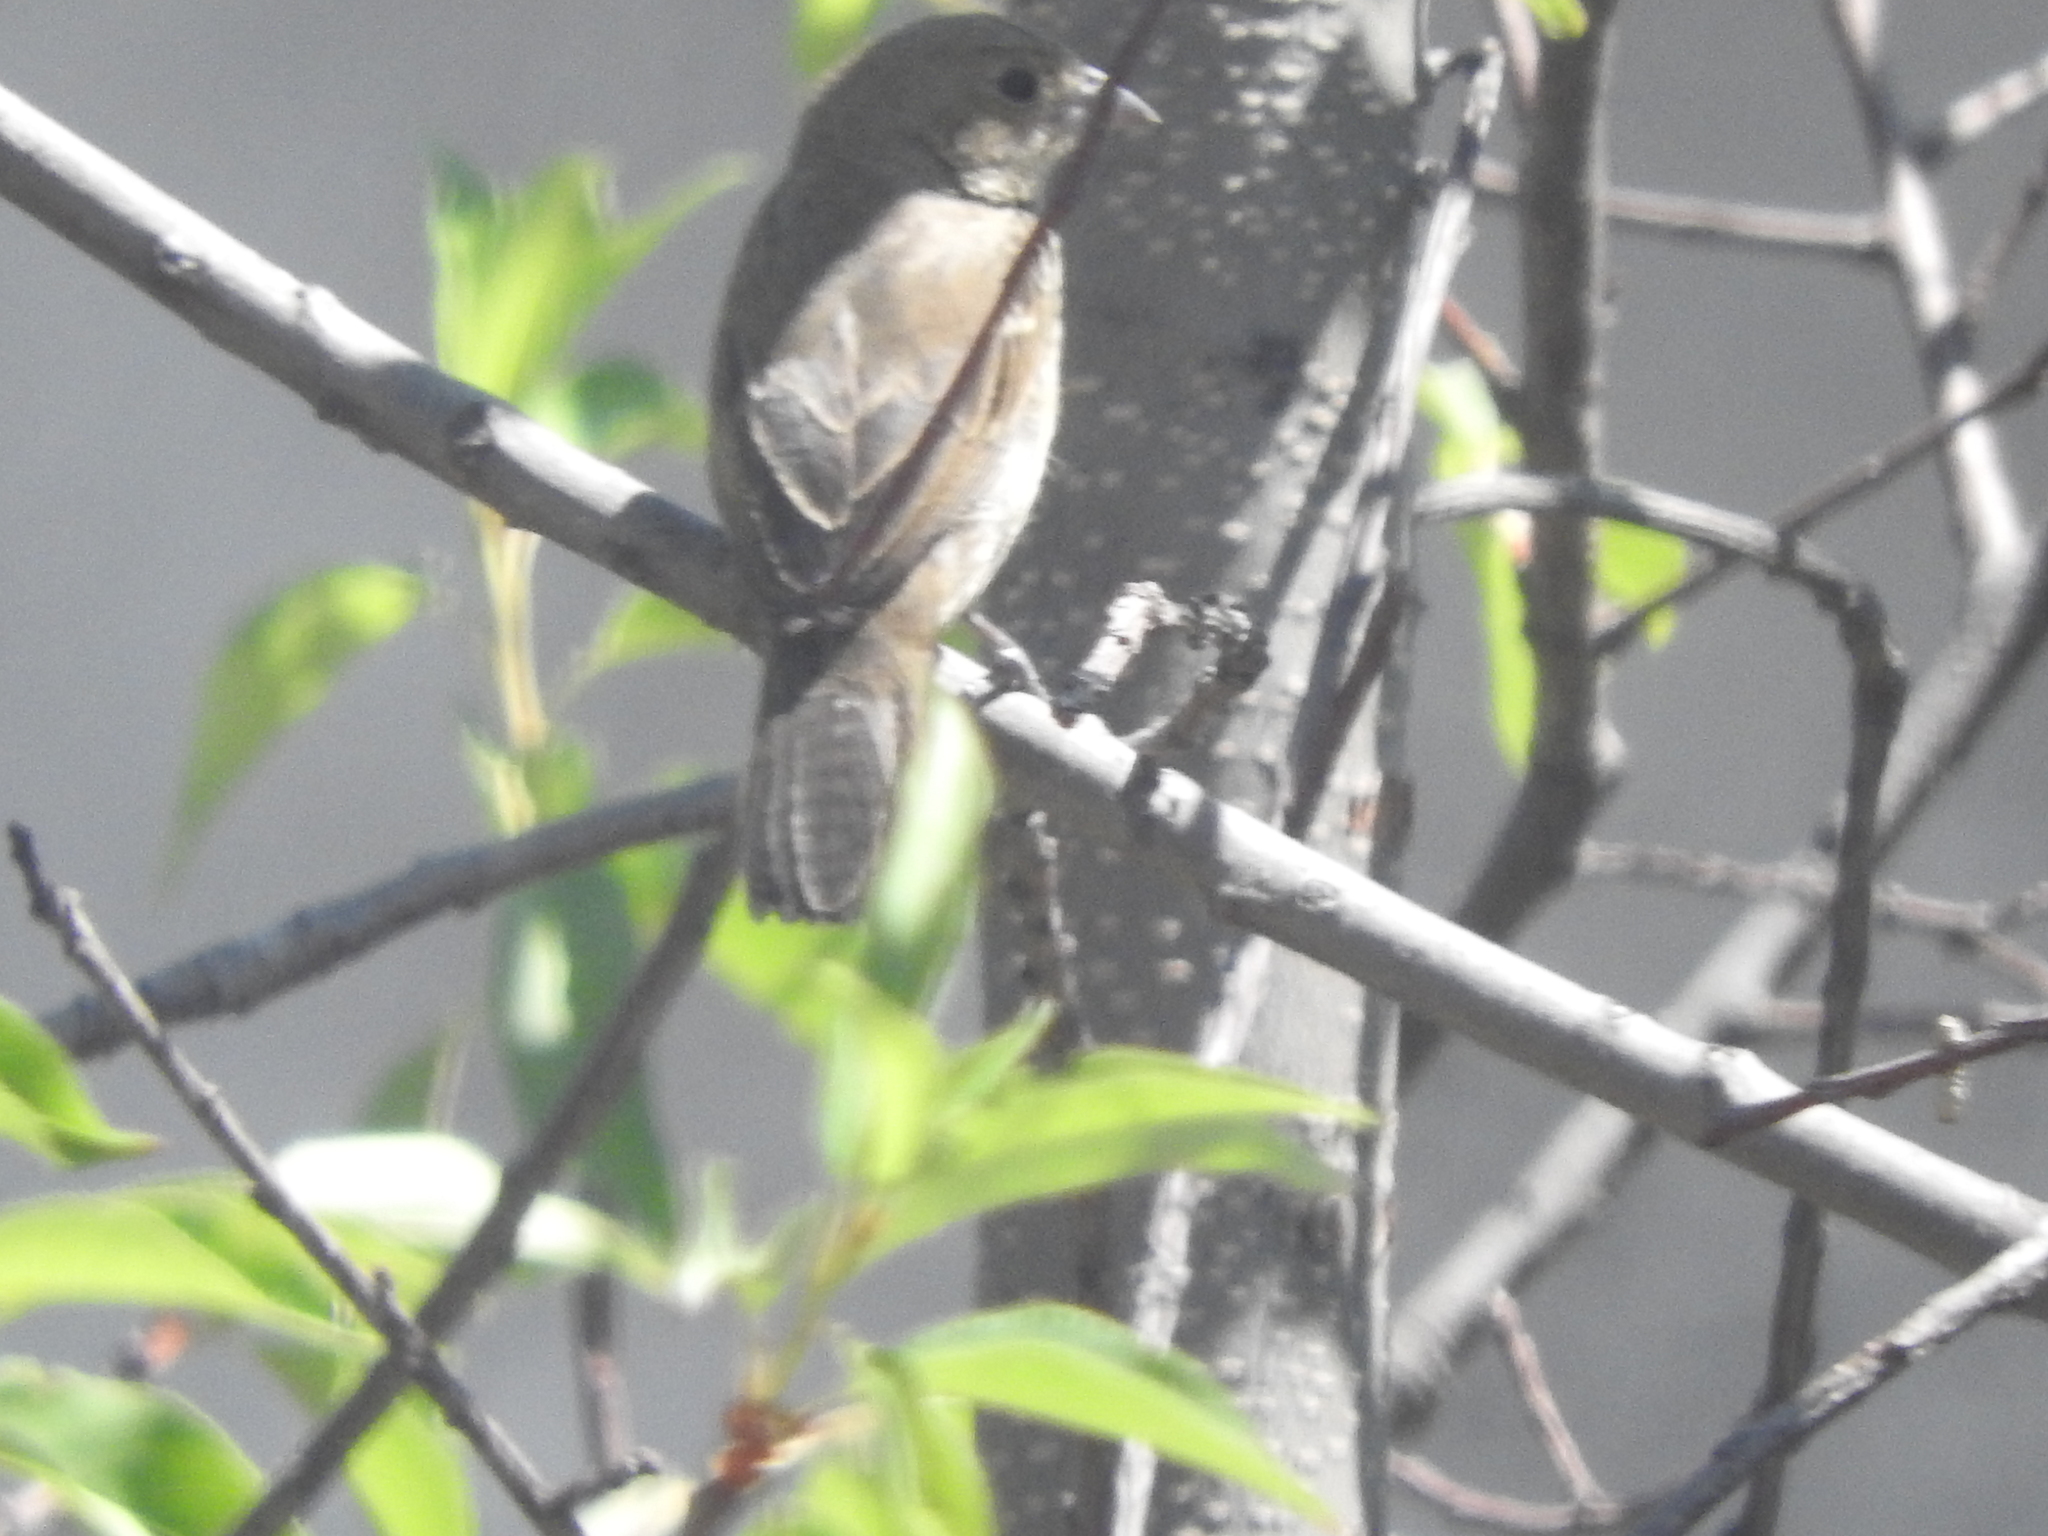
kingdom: Animalia
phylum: Chordata
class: Aves
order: Passeriformes
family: Thraupidae
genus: Volatinia
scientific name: Volatinia jacarina
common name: Blue-black grassquit
